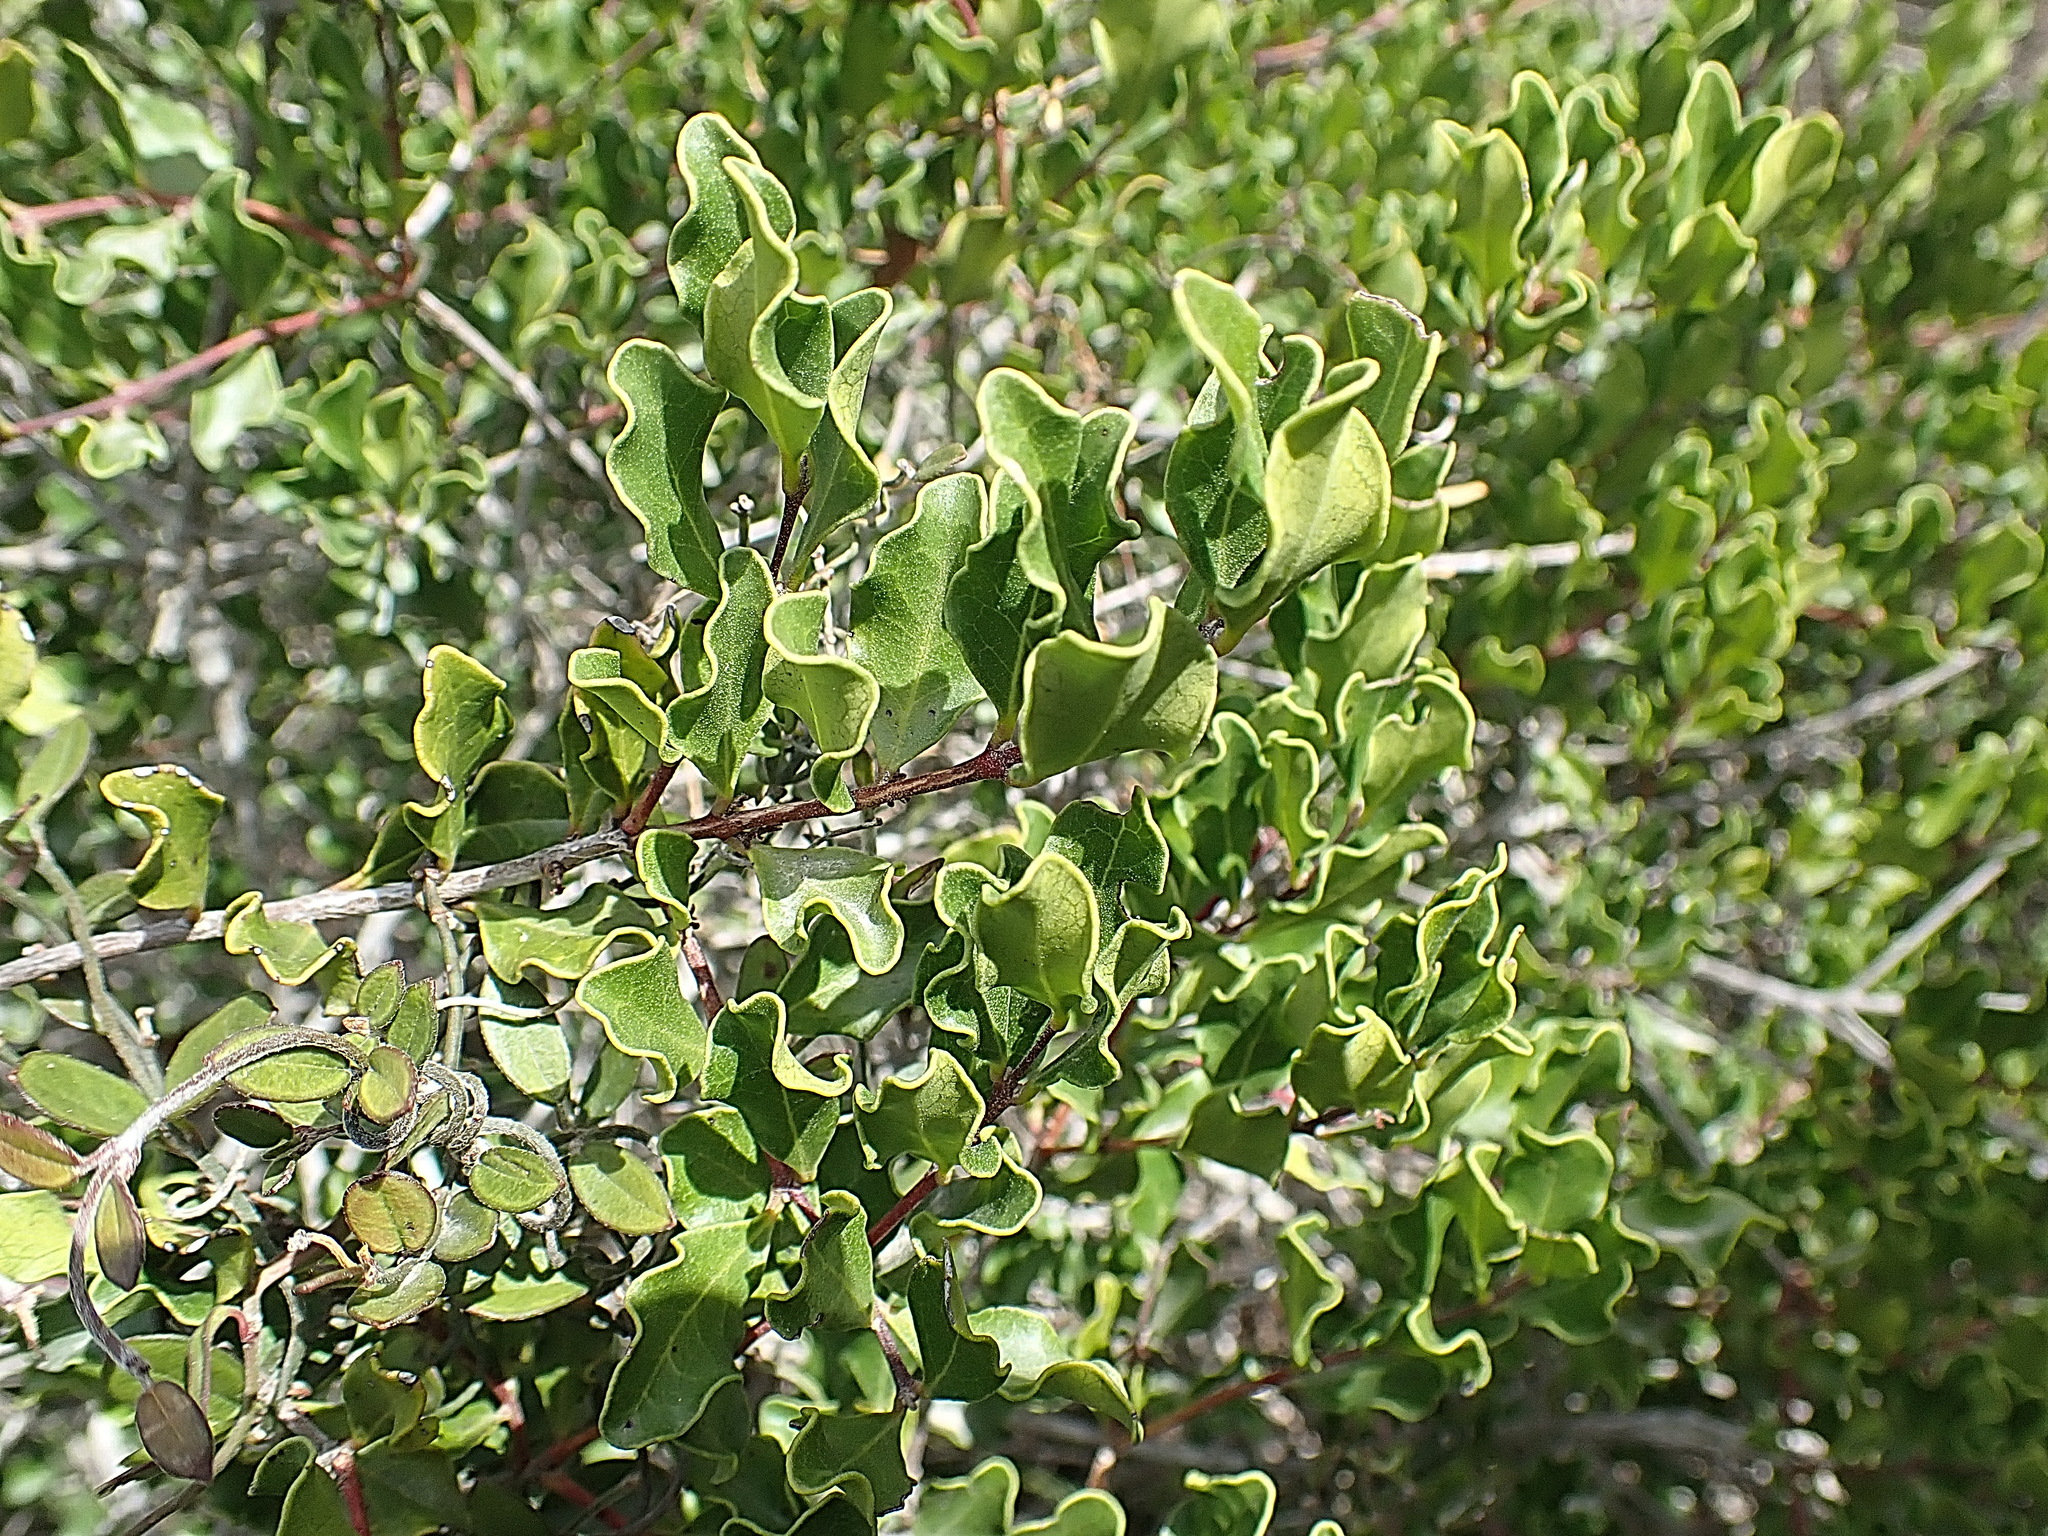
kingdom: Plantae
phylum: Tracheophyta
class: Magnoliopsida
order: Ericales
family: Ebenaceae
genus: Euclea
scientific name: Euclea undulata
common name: Small-leaved guarri
